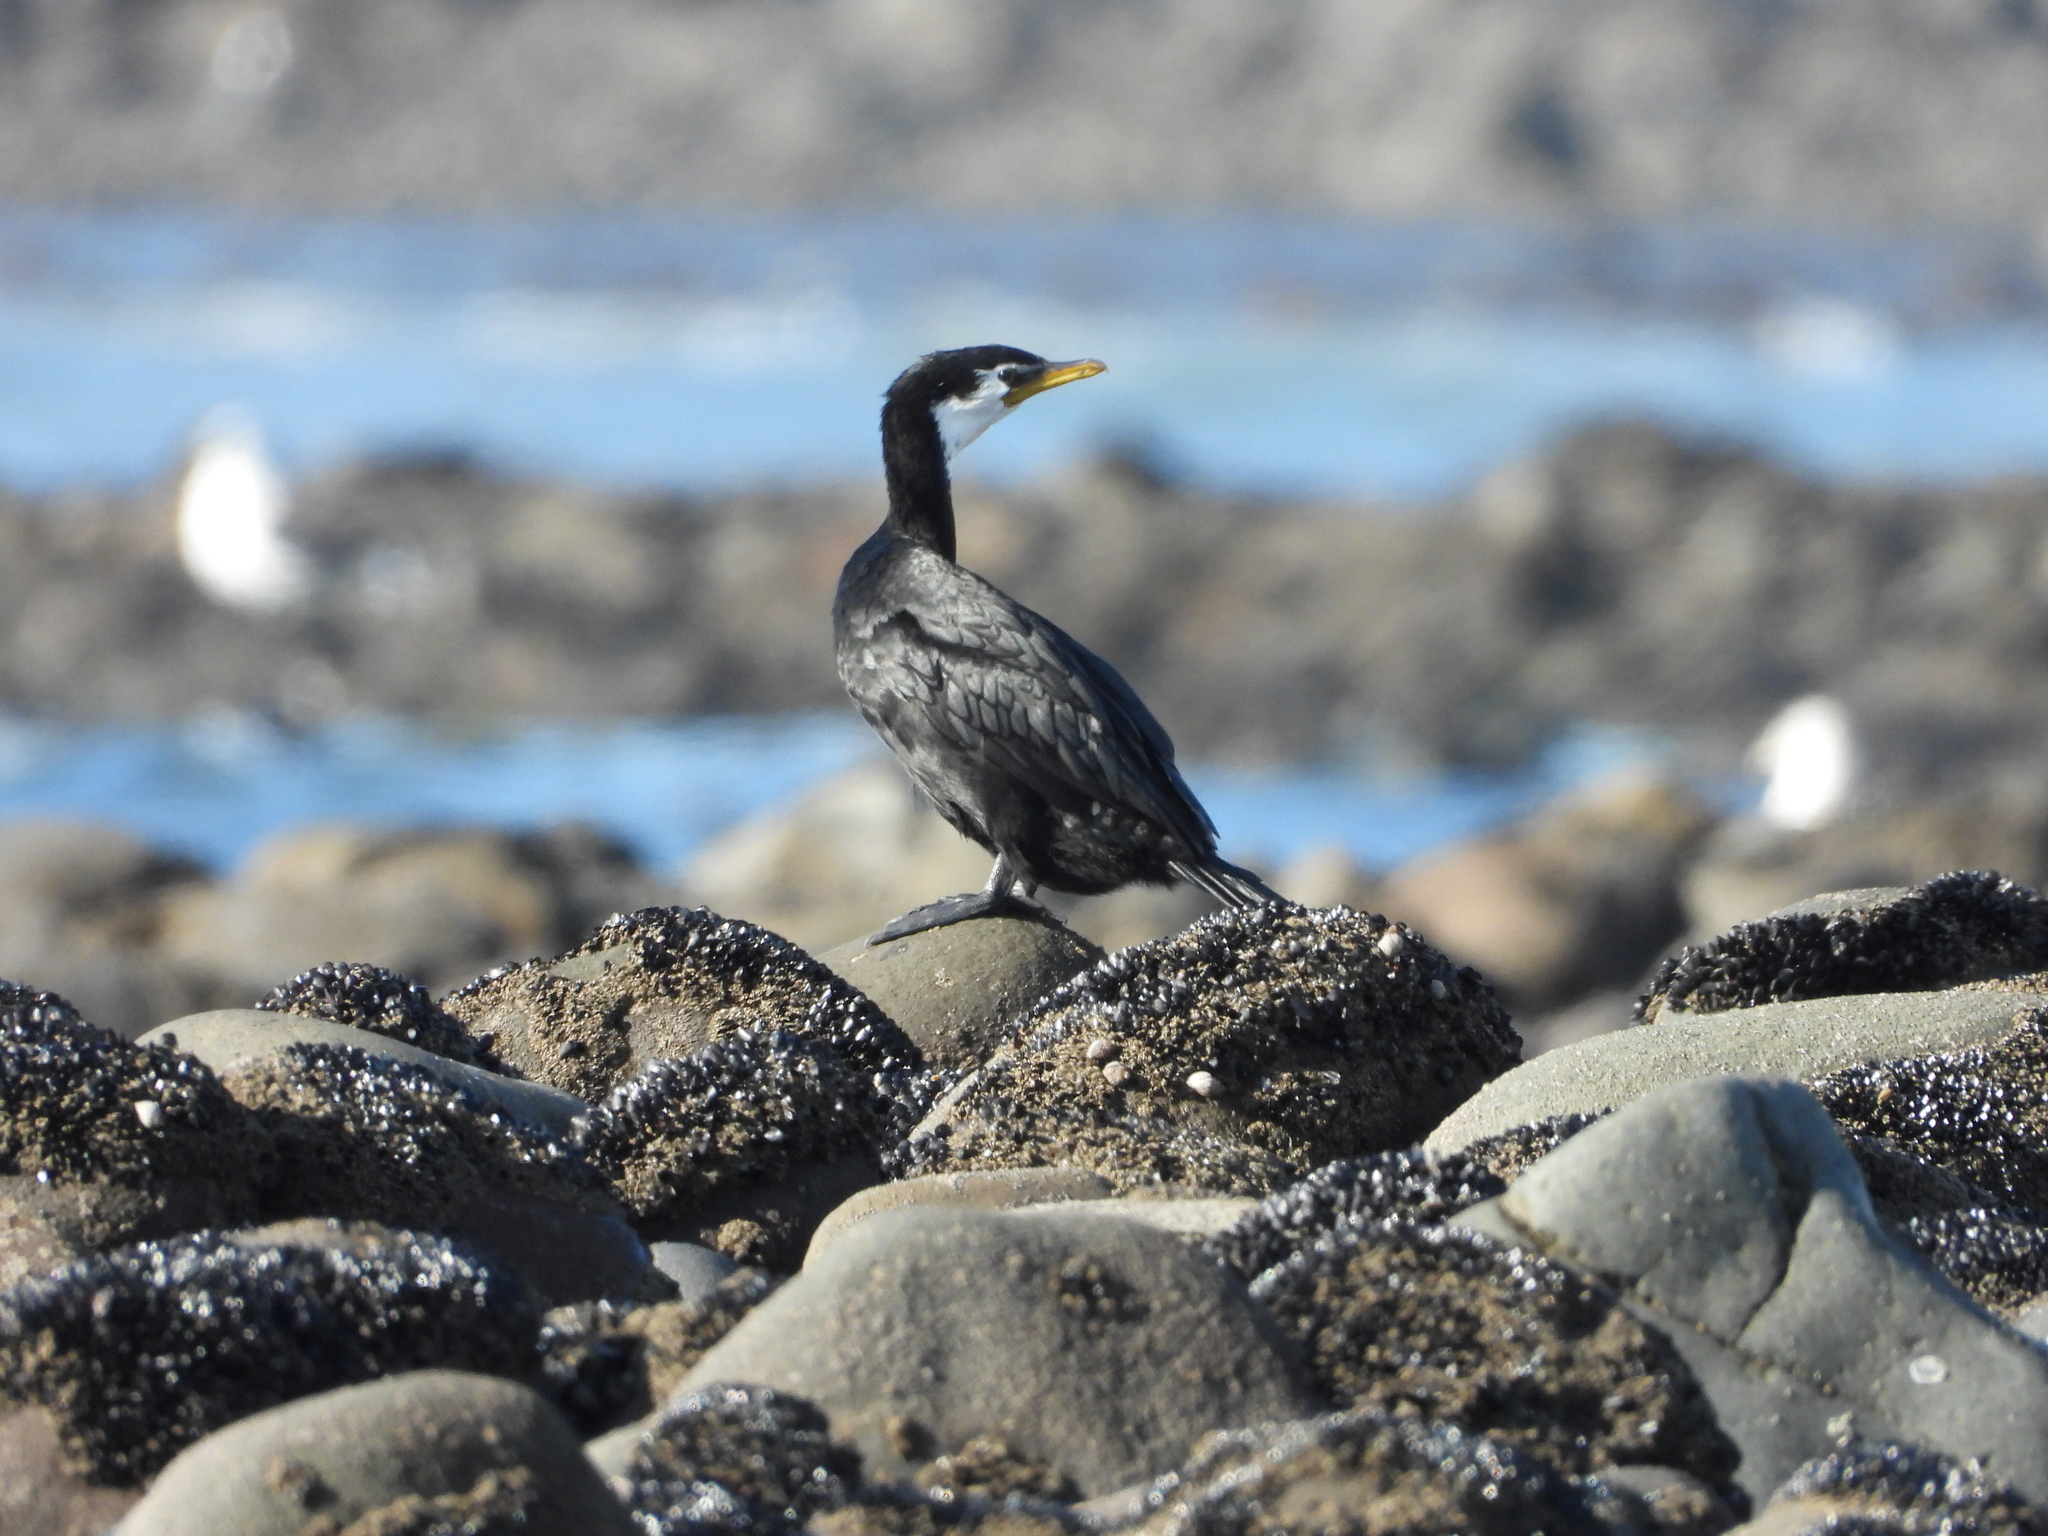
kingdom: Animalia
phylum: Chordata
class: Aves
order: Suliformes
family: Phalacrocoracidae
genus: Microcarbo
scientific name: Microcarbo melanoleucos
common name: Little pied cormorant
